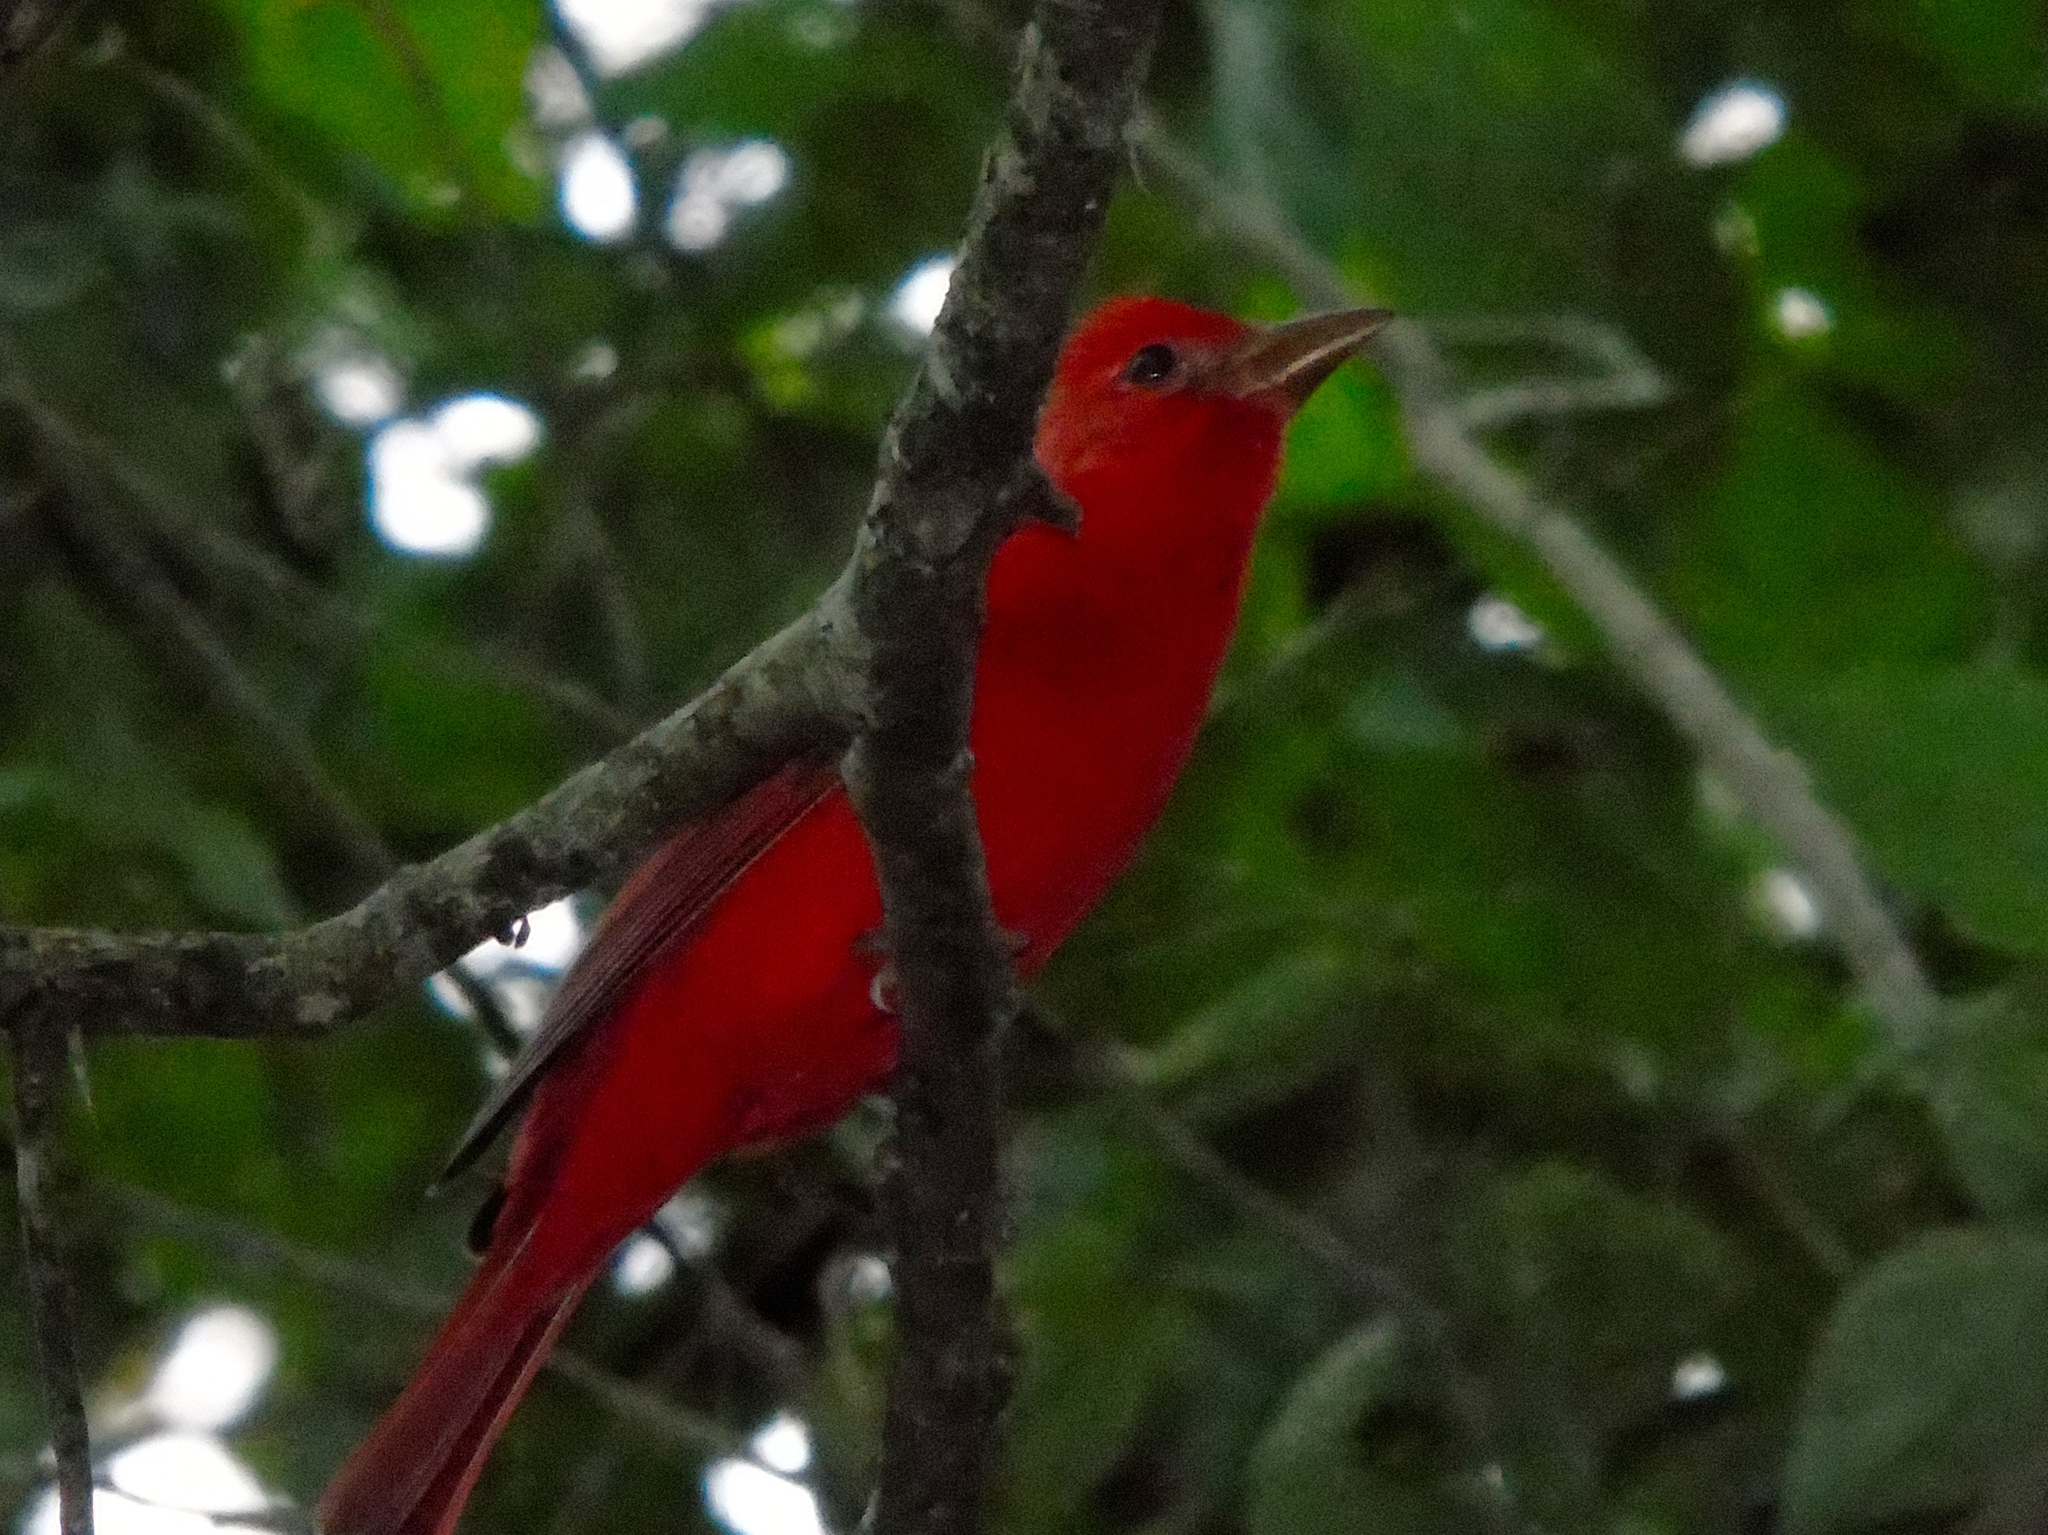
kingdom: Animalia
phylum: Chordata
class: Aves
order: Passeriformes
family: Cardinalidae
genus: Piranga
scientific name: Piranga rubra
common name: Summer tanager
